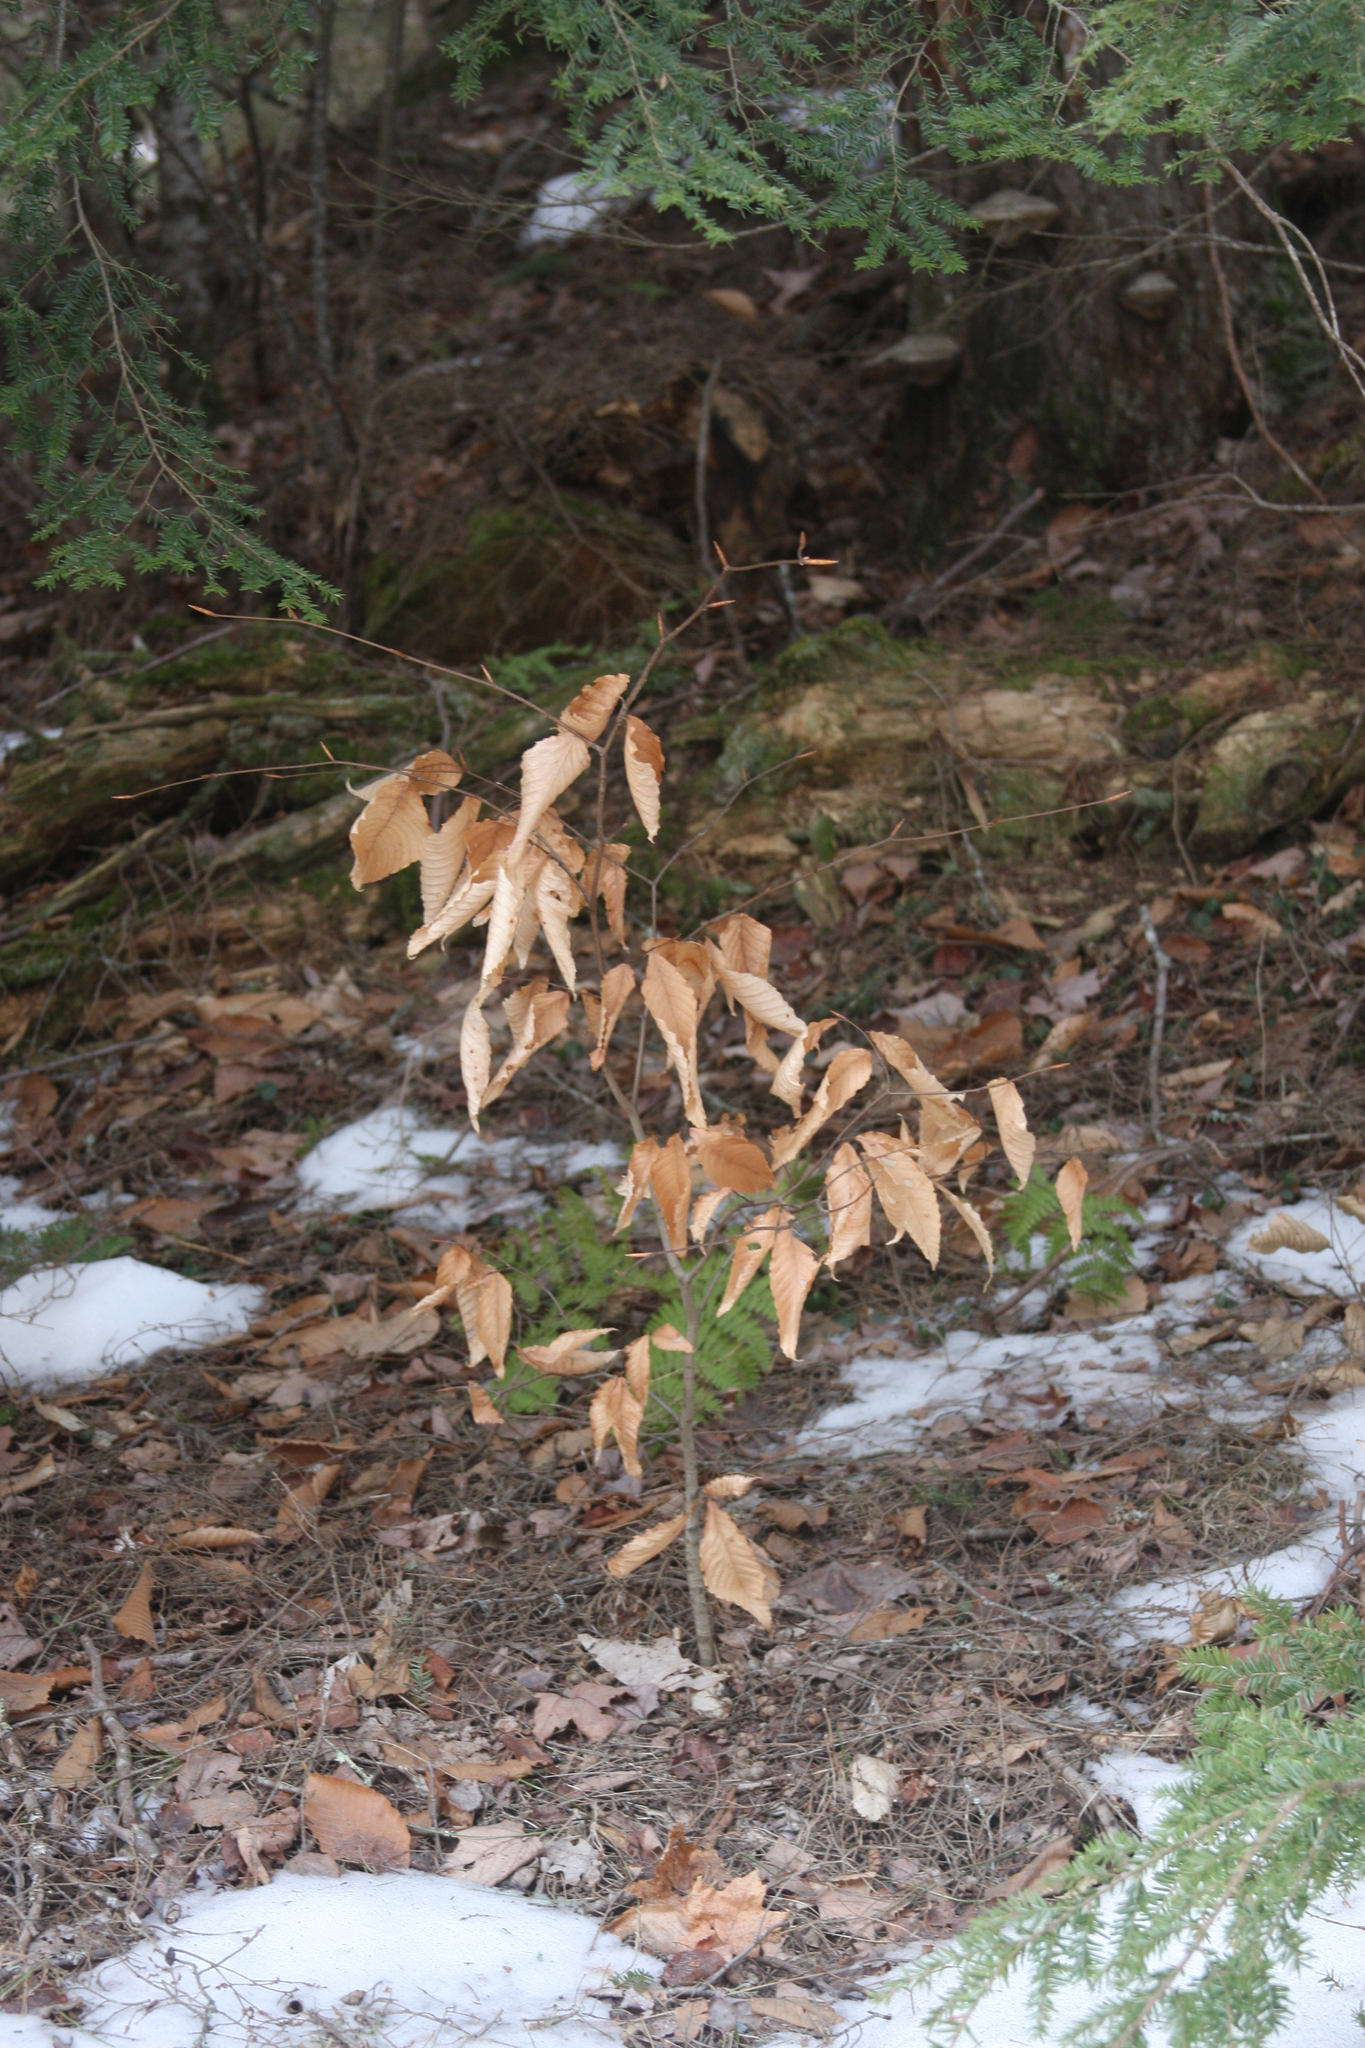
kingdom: Plantae
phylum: Tracheophyta
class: Magnoliopsida
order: Fagales
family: Fagaceae
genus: Fagus
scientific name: Fagus grandifolia
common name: American beech
